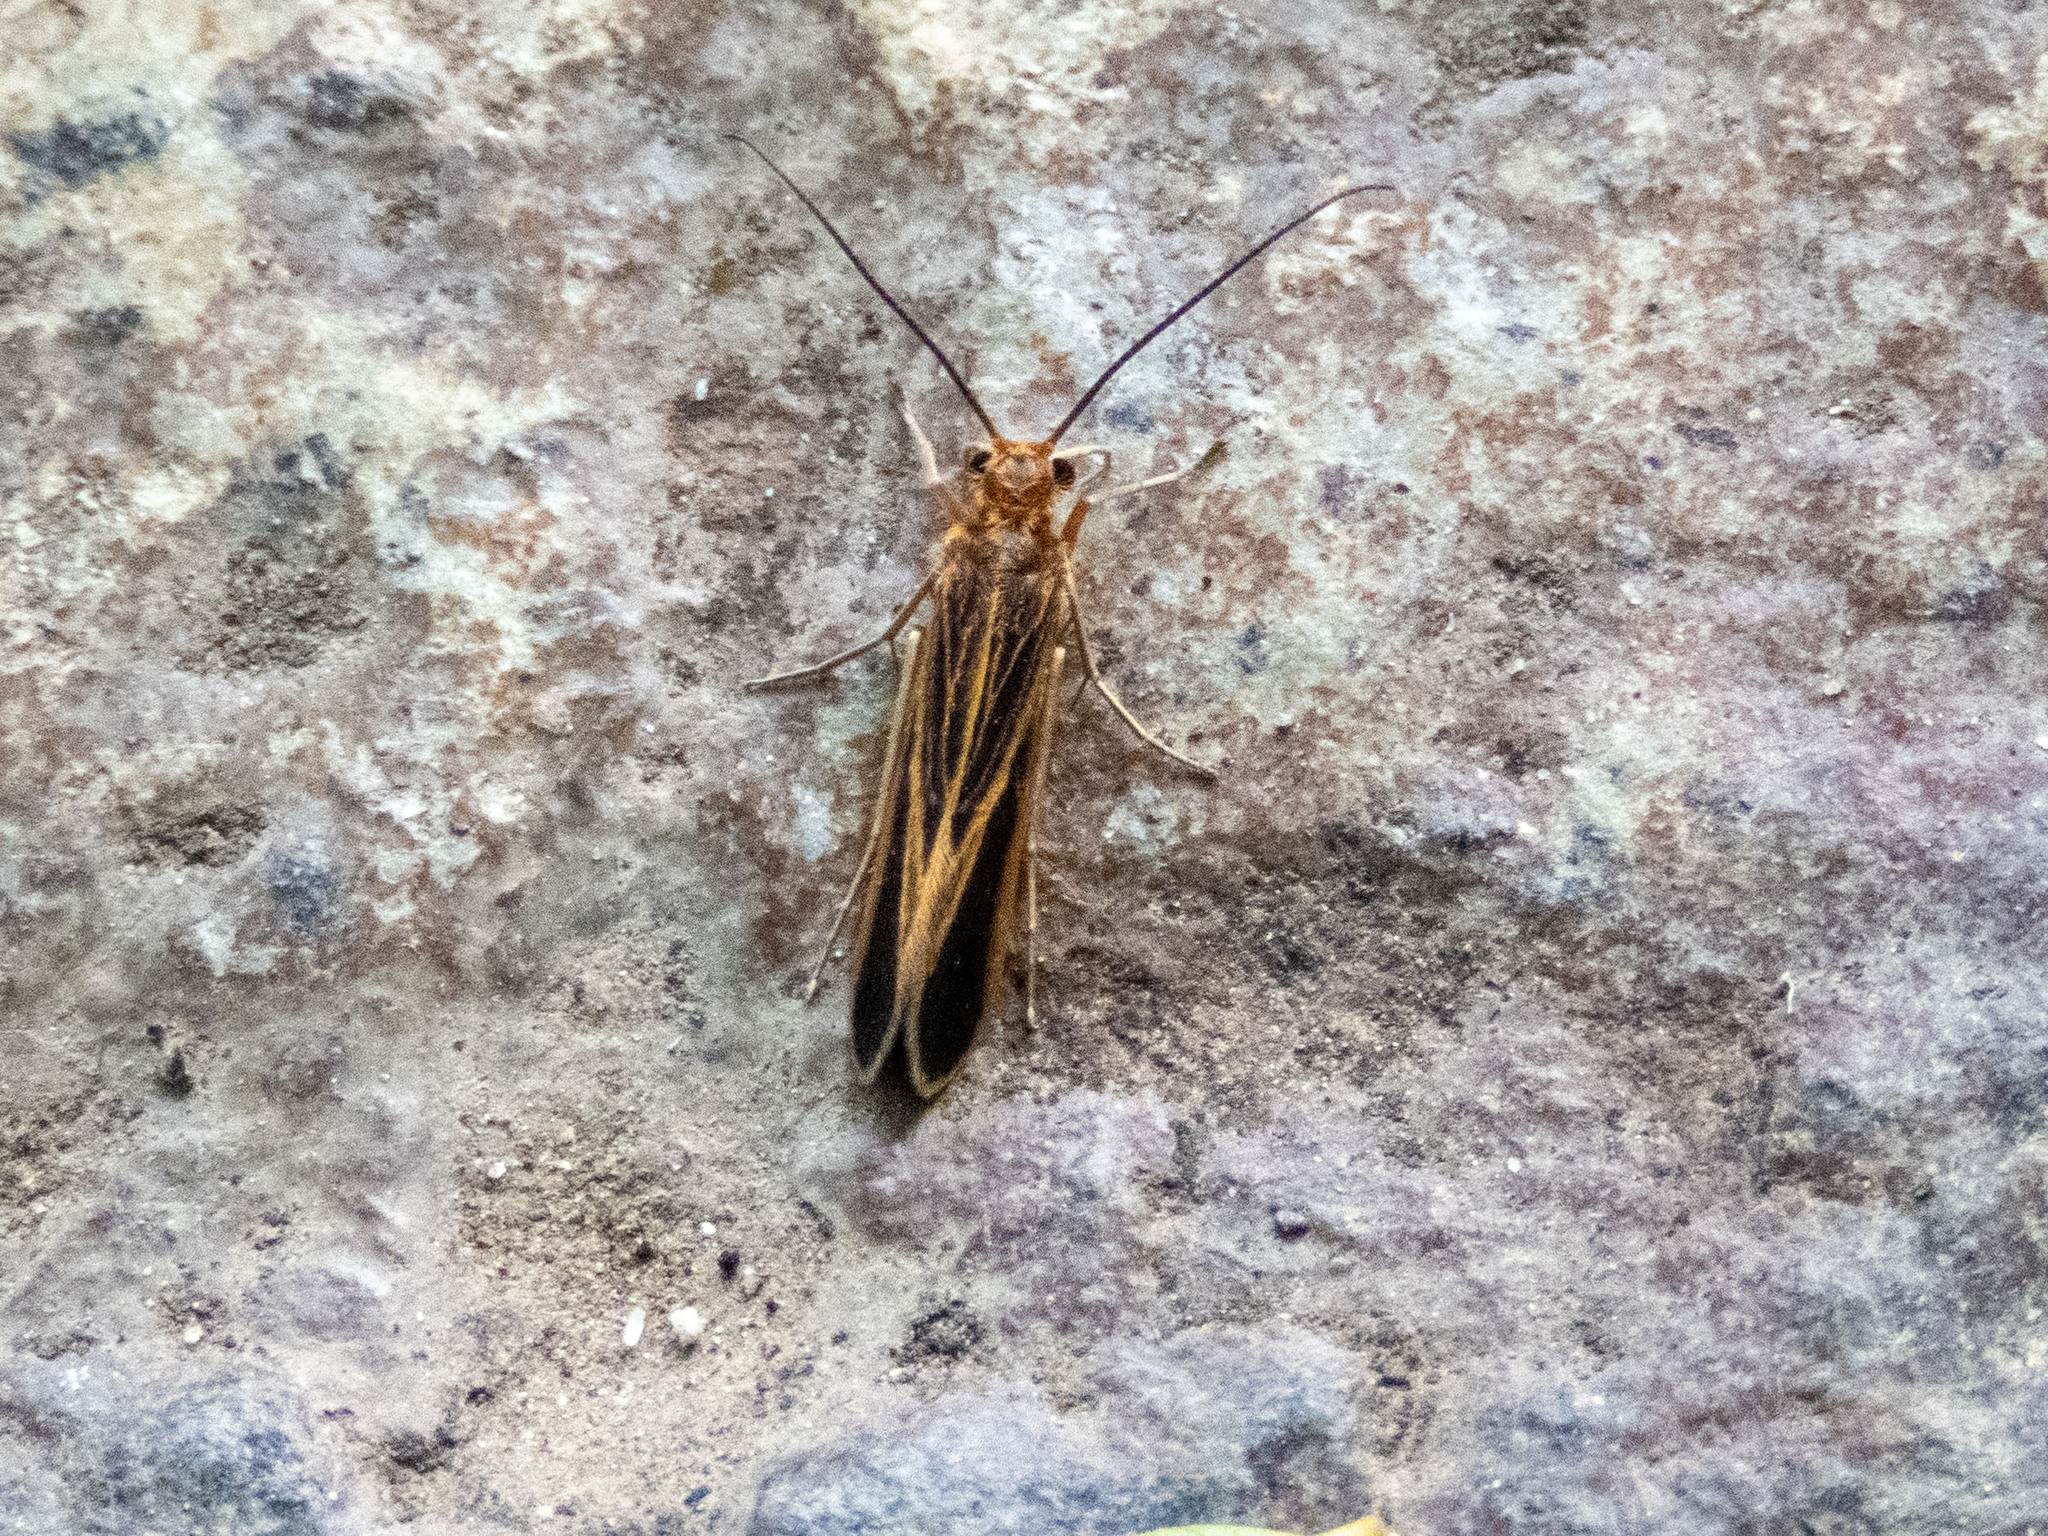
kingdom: Animalia
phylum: Arthropoda
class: Insecta
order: Trichoptera
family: Philopotamidae
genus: Chimarra
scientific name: Chimarra marginata
